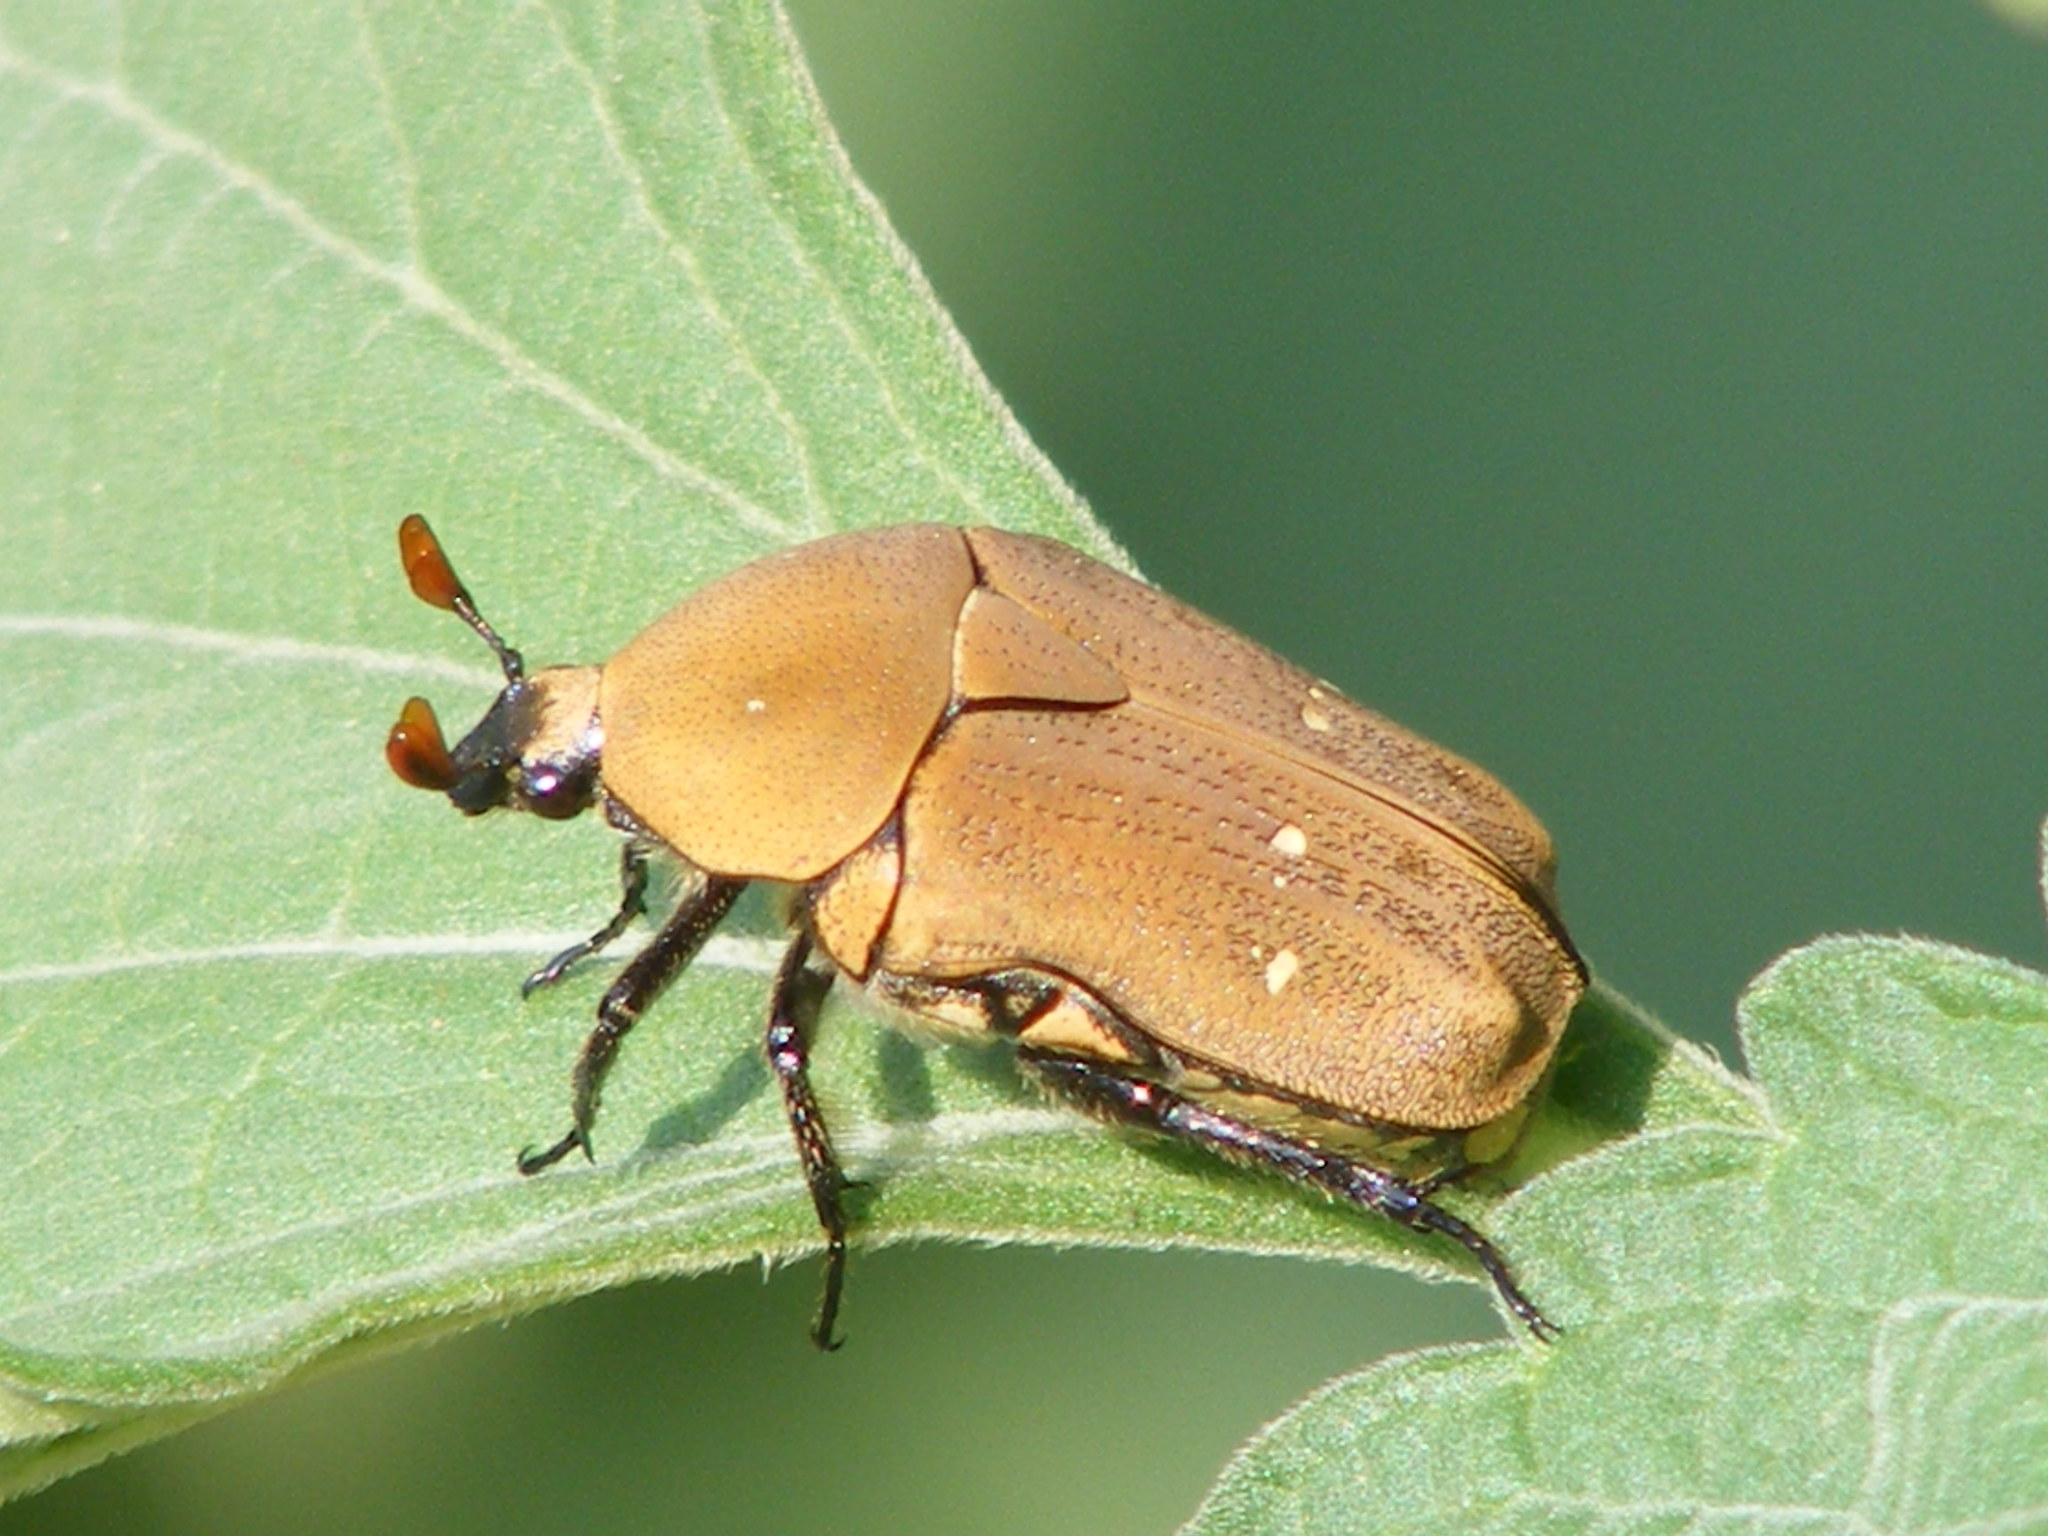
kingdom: Animalia
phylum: Arthropoda
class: Insecta
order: Coleoptera
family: Scarabaeidae
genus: Tephraea
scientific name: Tephraea dichroa
